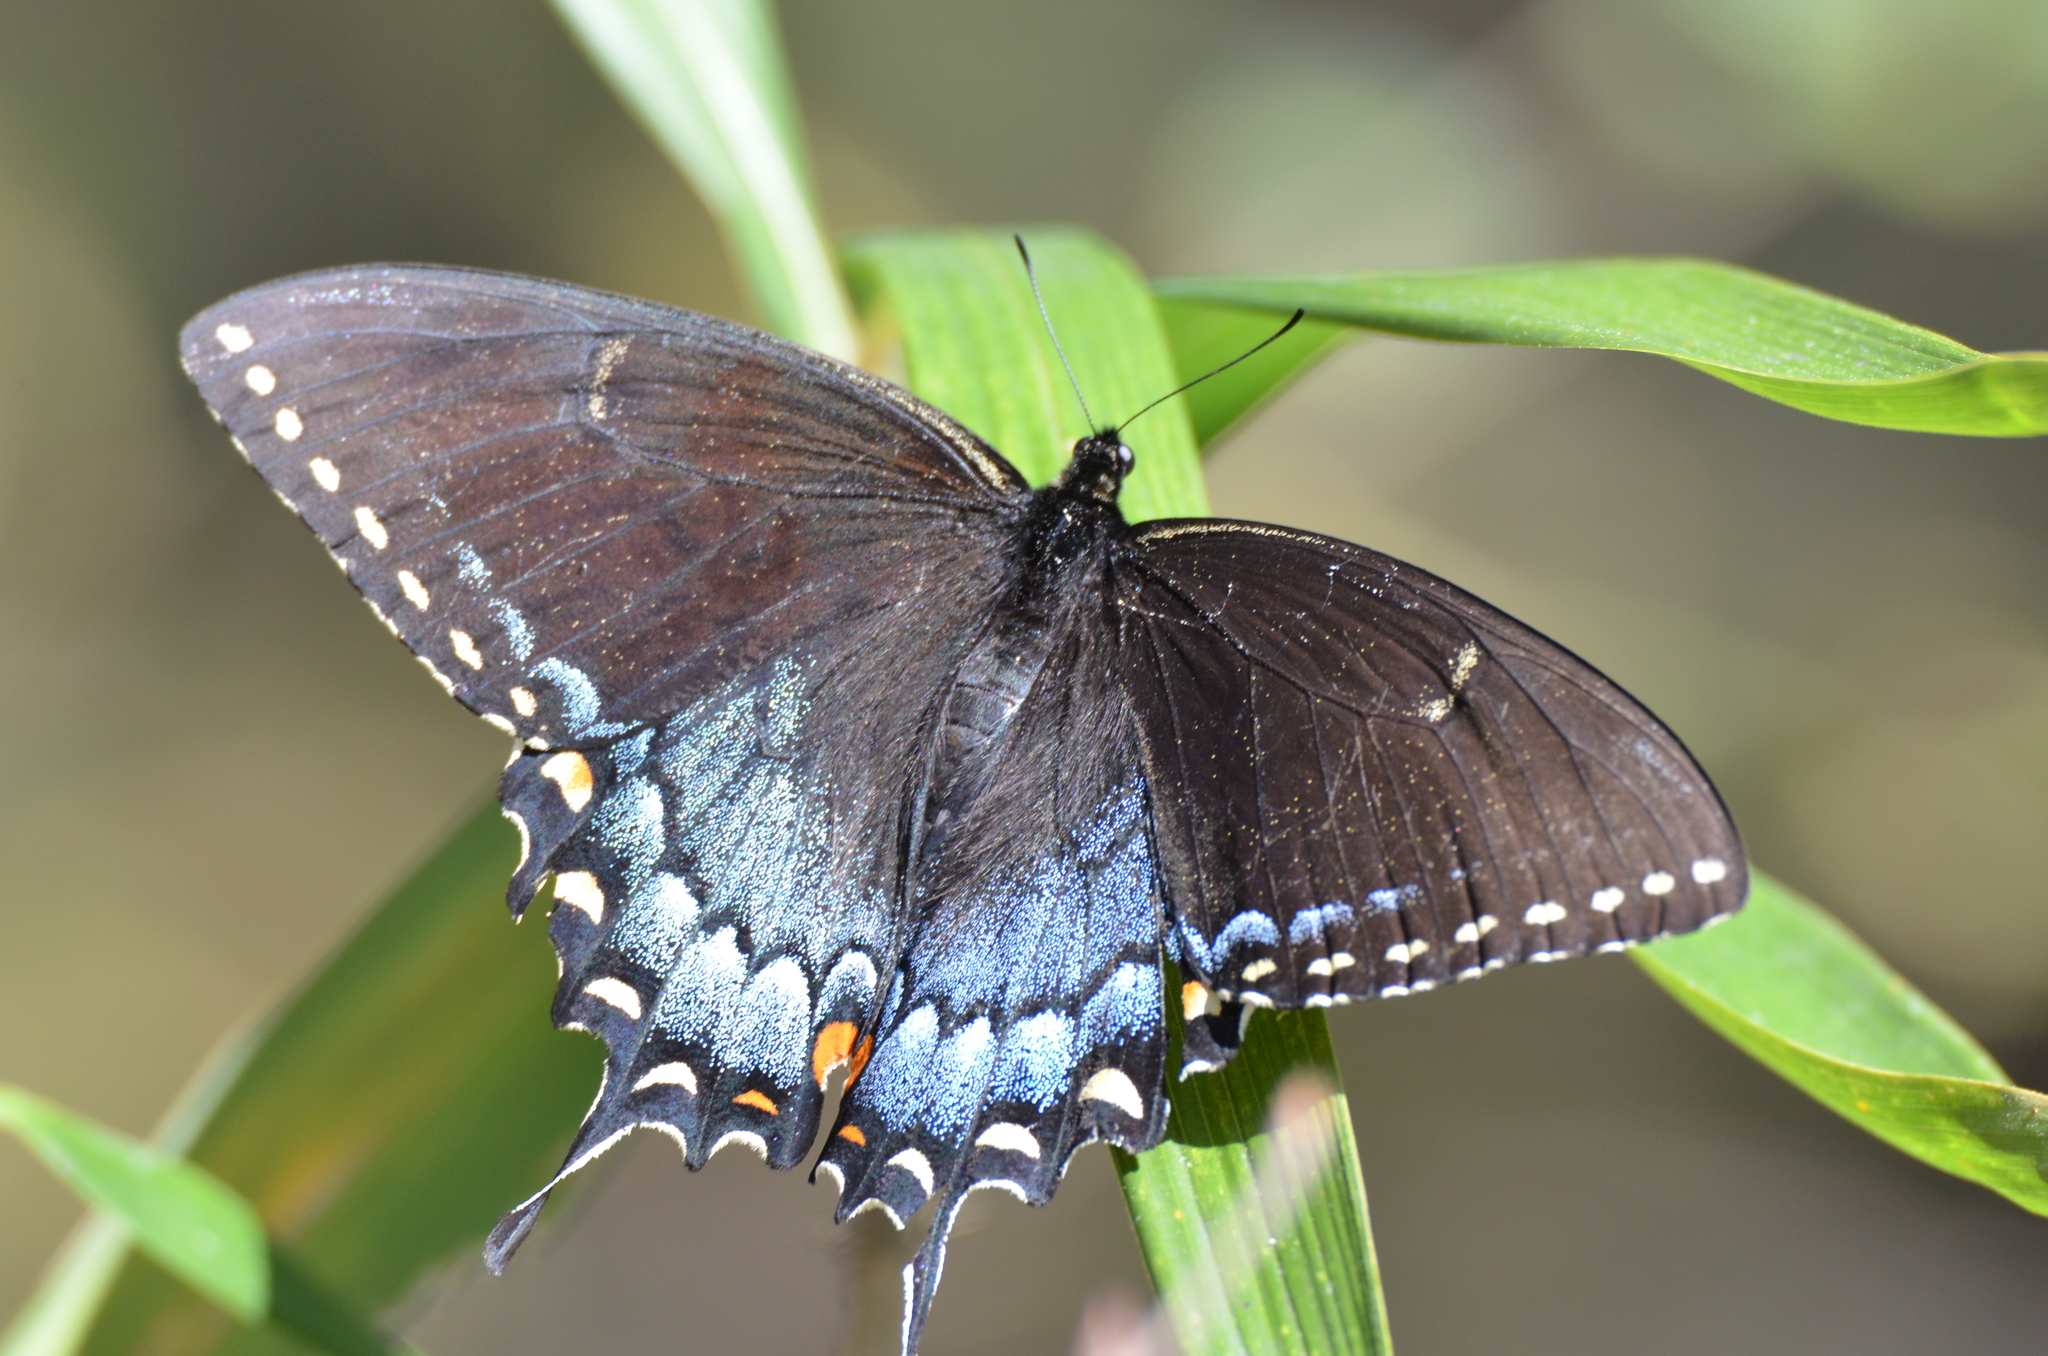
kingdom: Animalia
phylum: Arthropoda
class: Insecta
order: Lepidoptera
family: Papilionidae
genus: Papilio
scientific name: Papilio glaucus
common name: Tiger swallowtail
